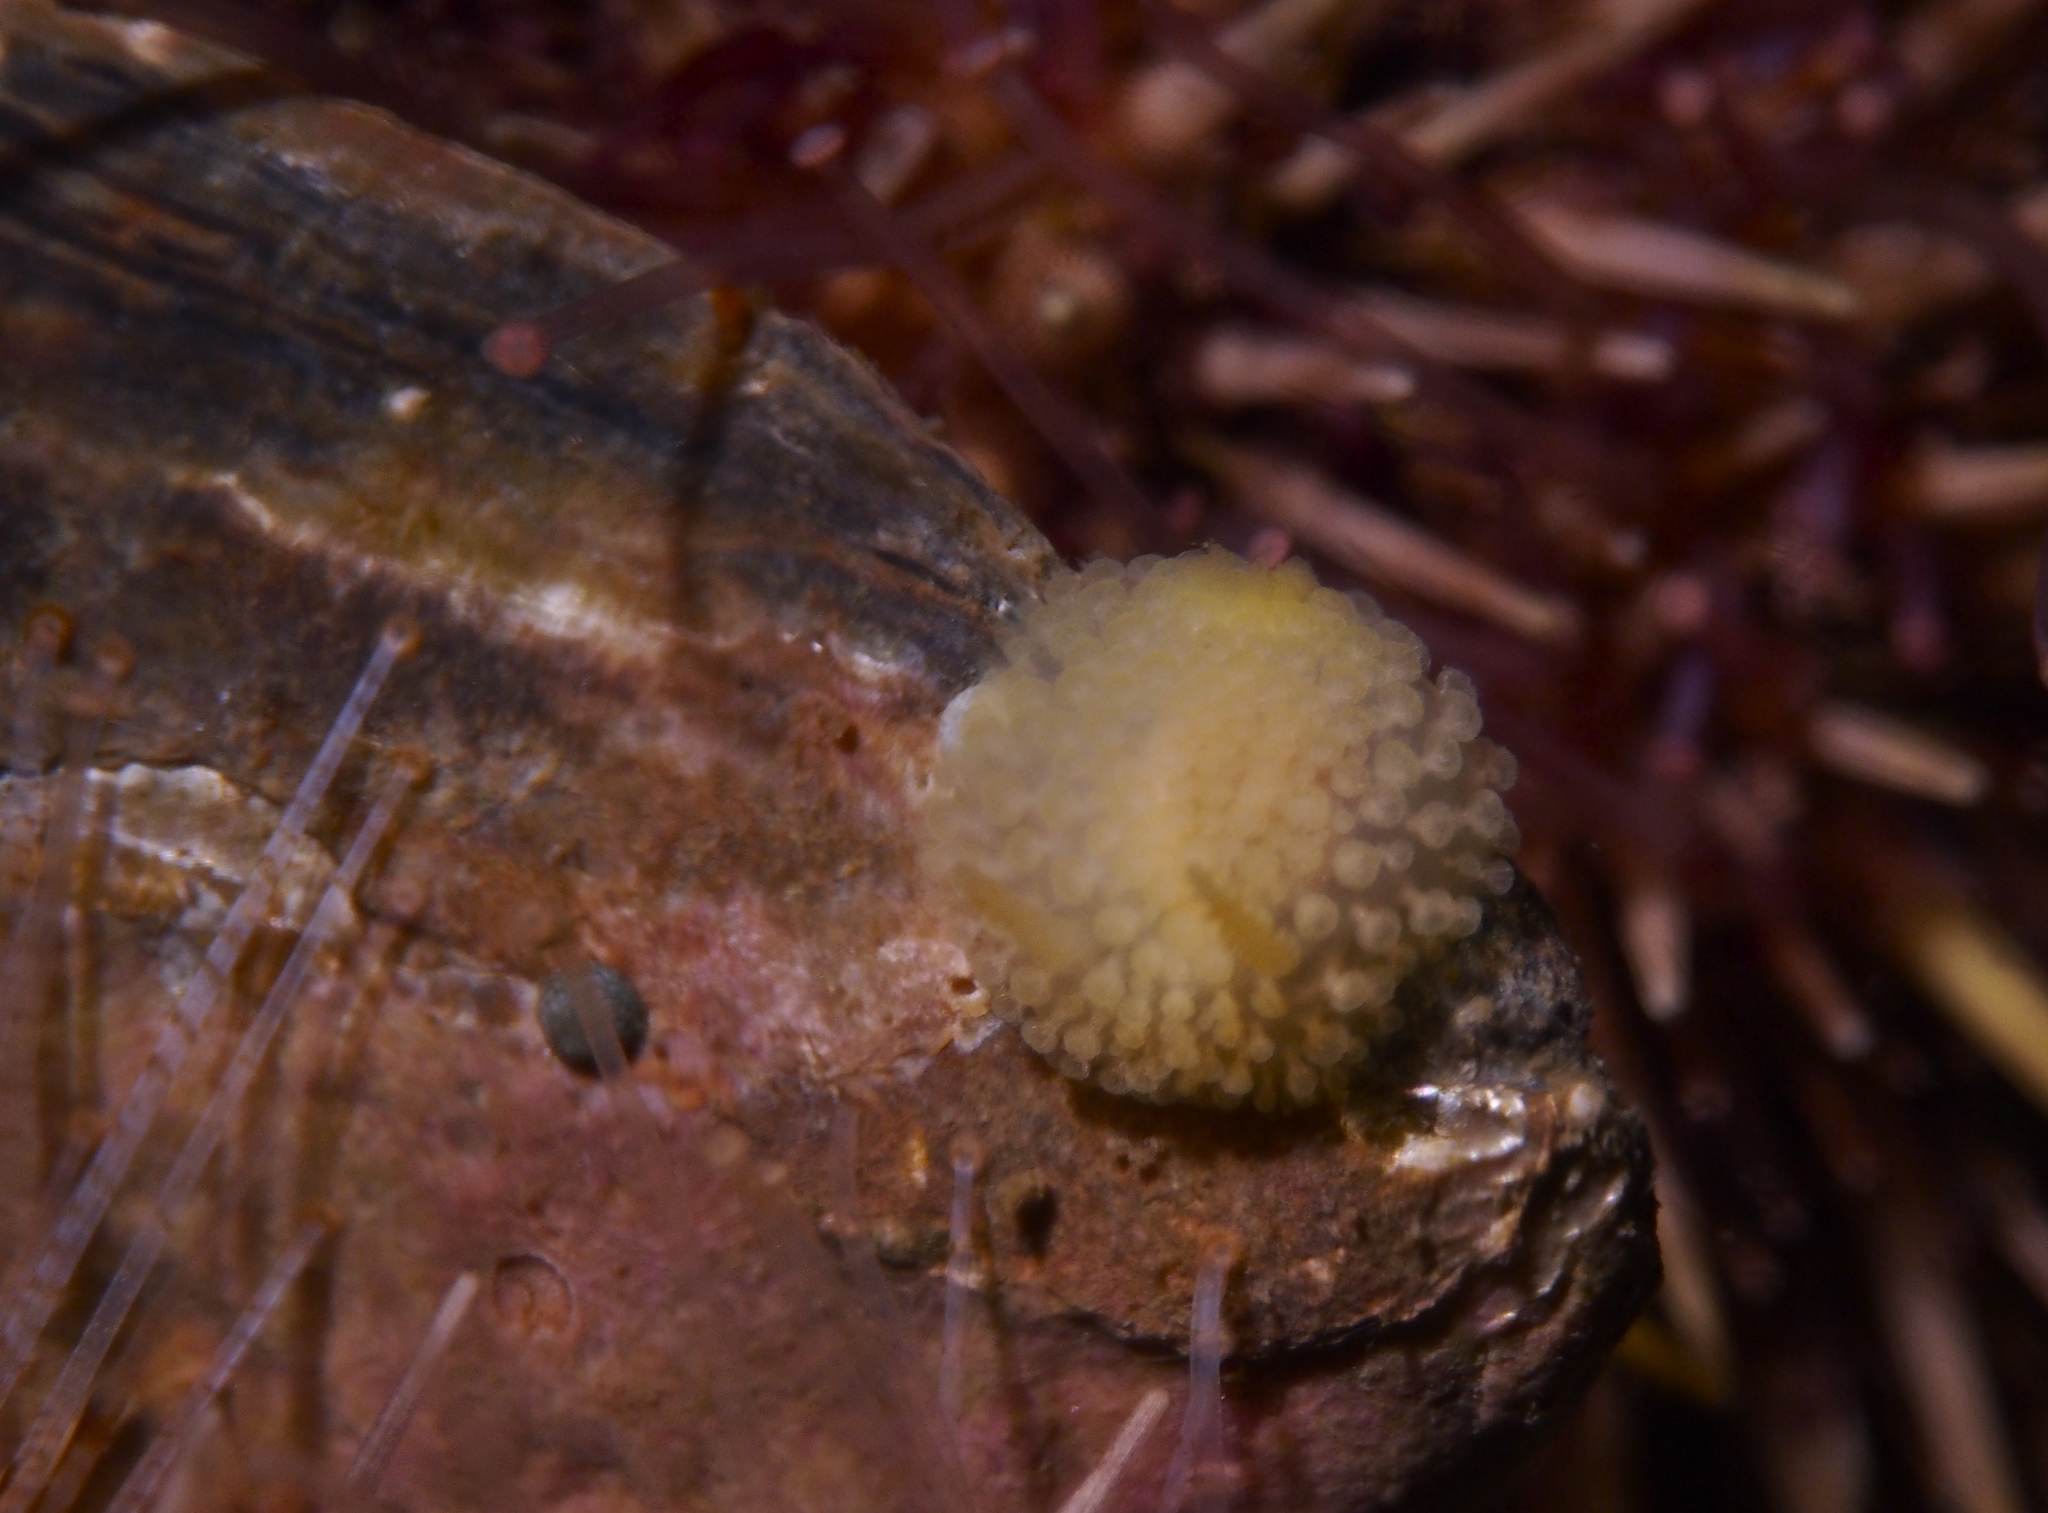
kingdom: Animalia
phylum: Mollusca
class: Gastropoda
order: Nudibranchia
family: Onchidorididae
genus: Onchidoris
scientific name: Onchidoris muricata
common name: Rough doris
